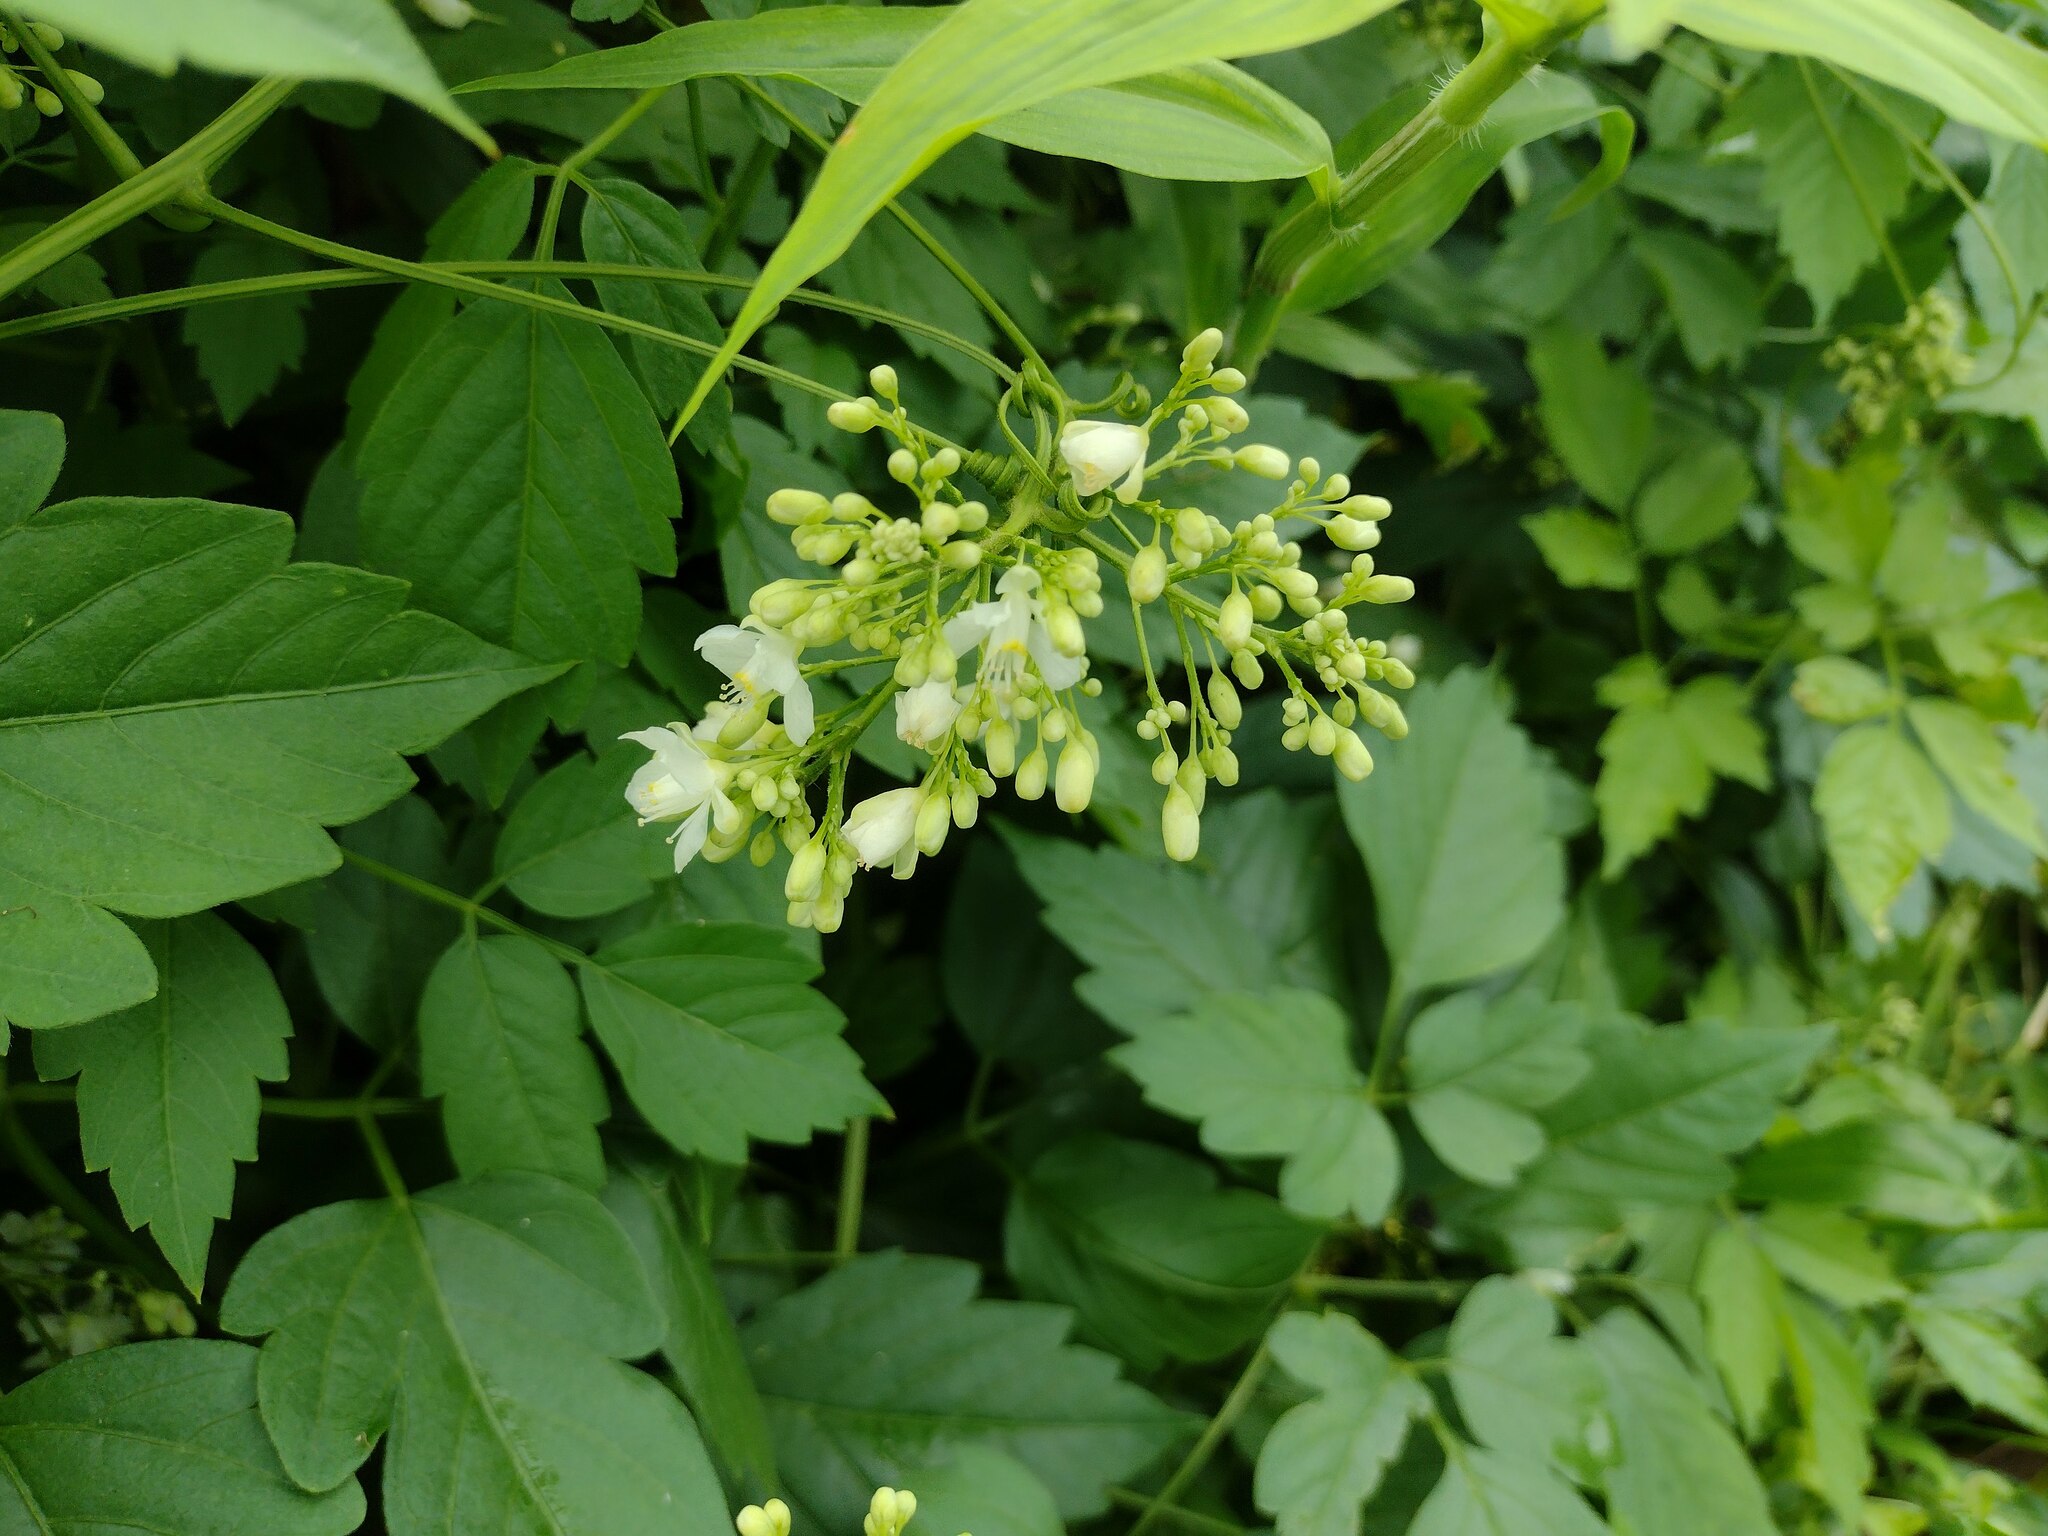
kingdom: Plantae
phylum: Tracheophyta
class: Magnoliopsida
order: Sapindales
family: Sapindaceae
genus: Cardiospermum
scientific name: Cardiospermum grandiflorum
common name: Balloon vine
